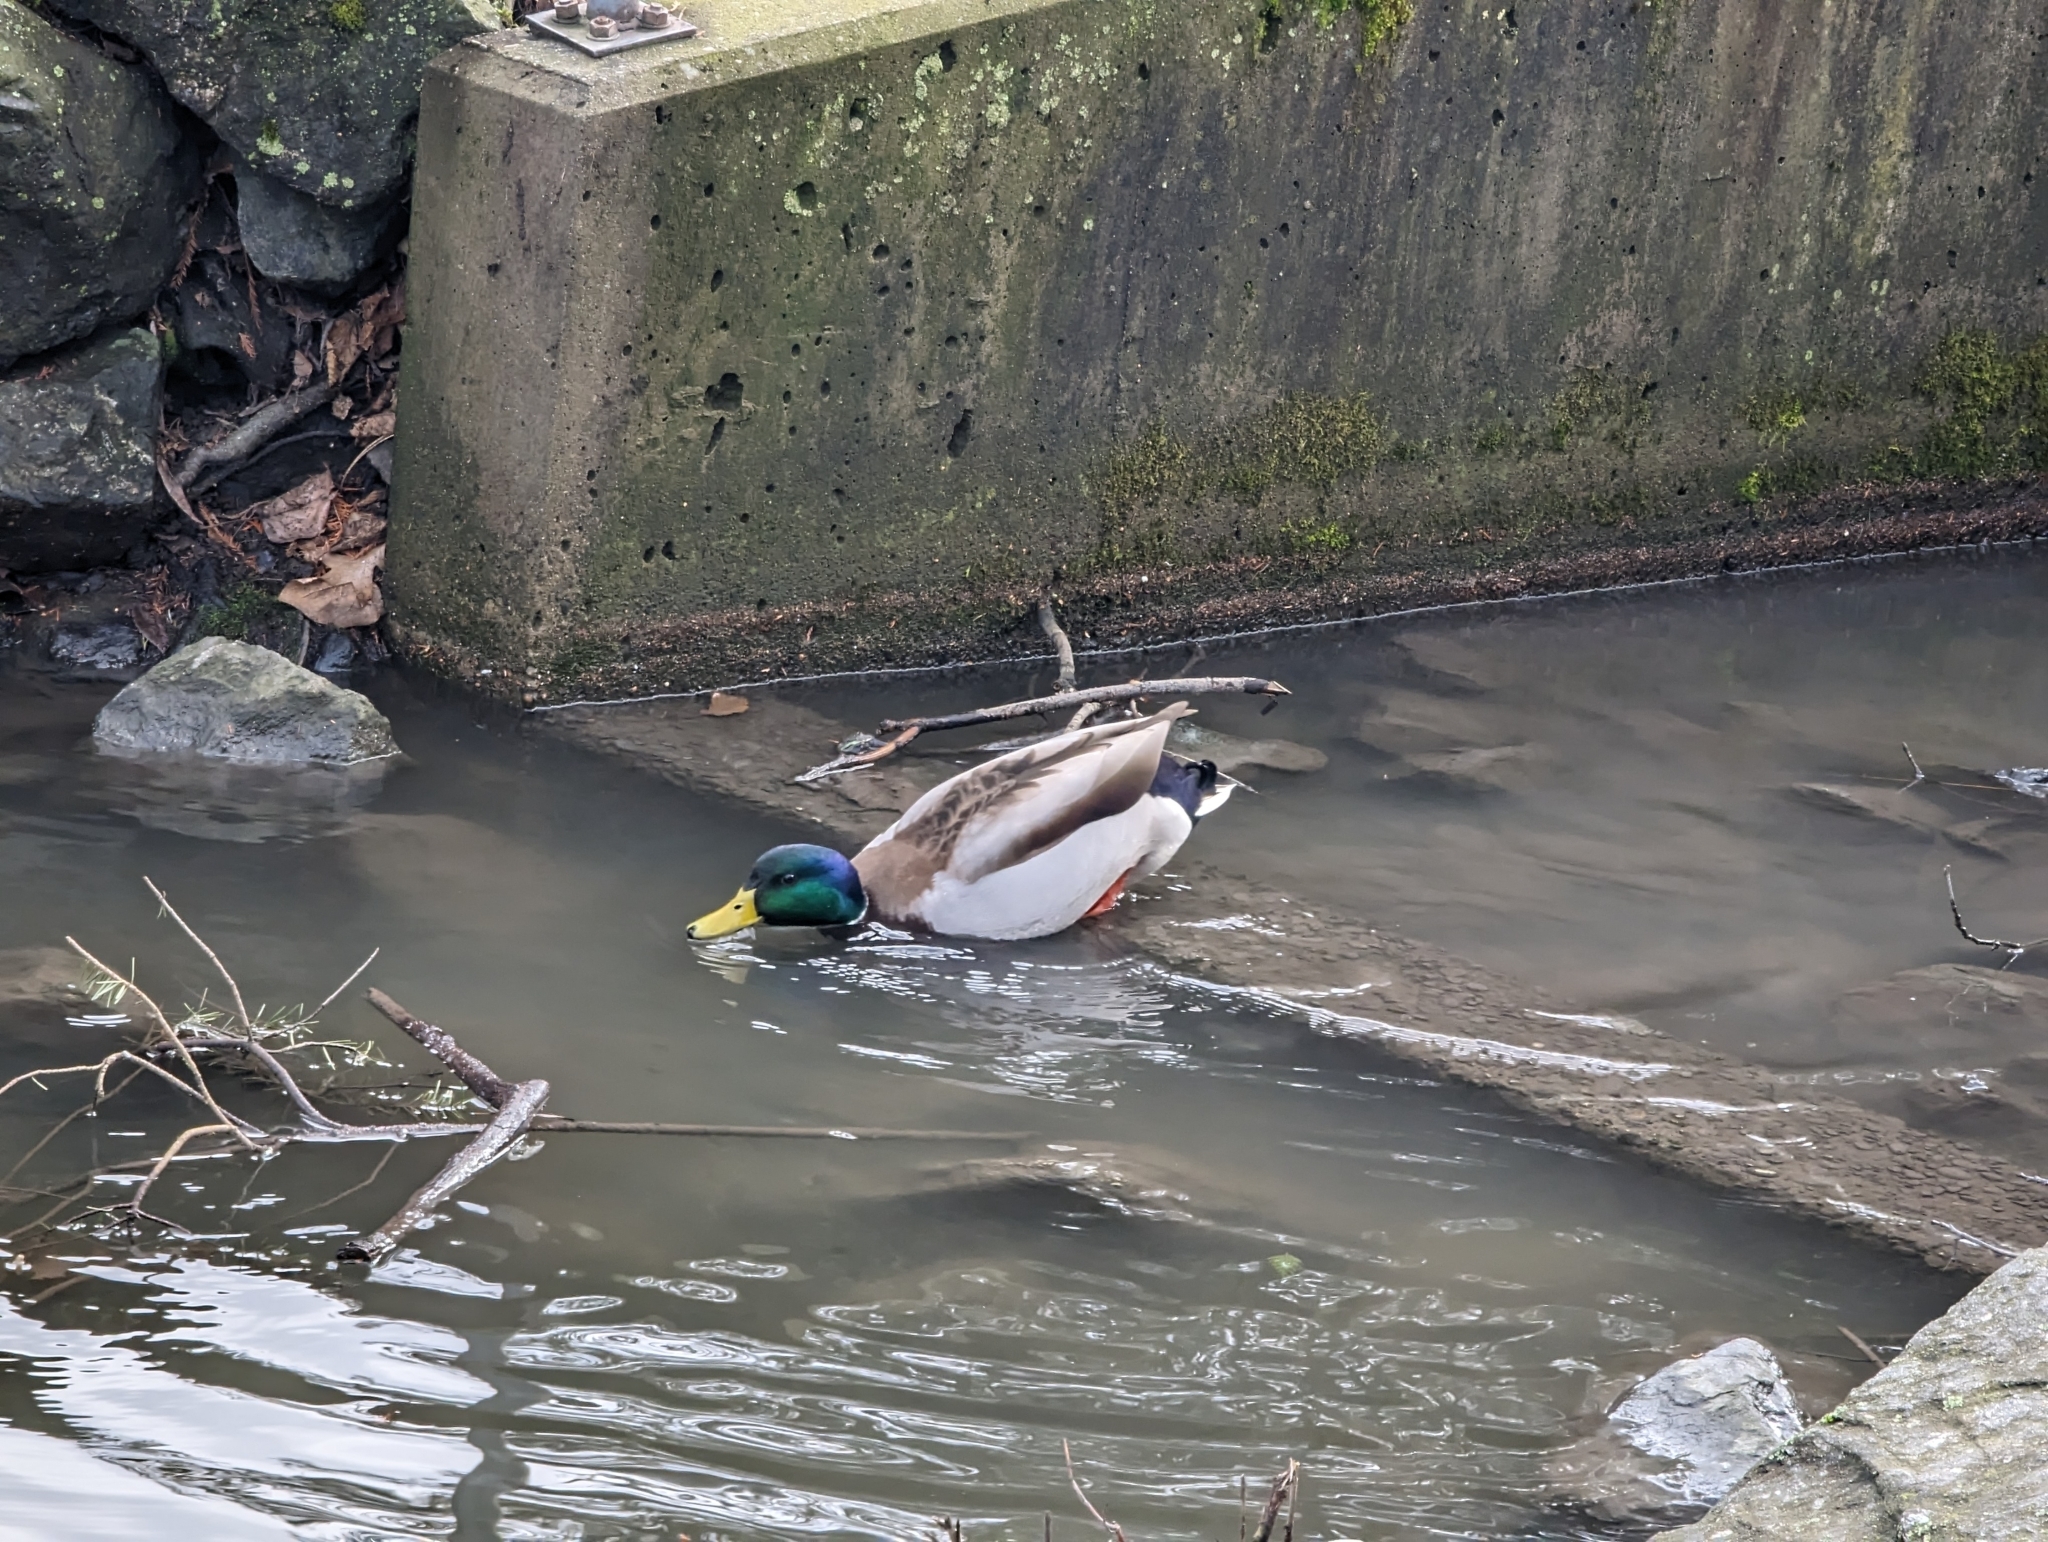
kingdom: Animalia
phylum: Chordata
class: Aves
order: Anseriformes
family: Anatidae
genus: Anas
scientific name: Anas platyrhynchos
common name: Mallard
